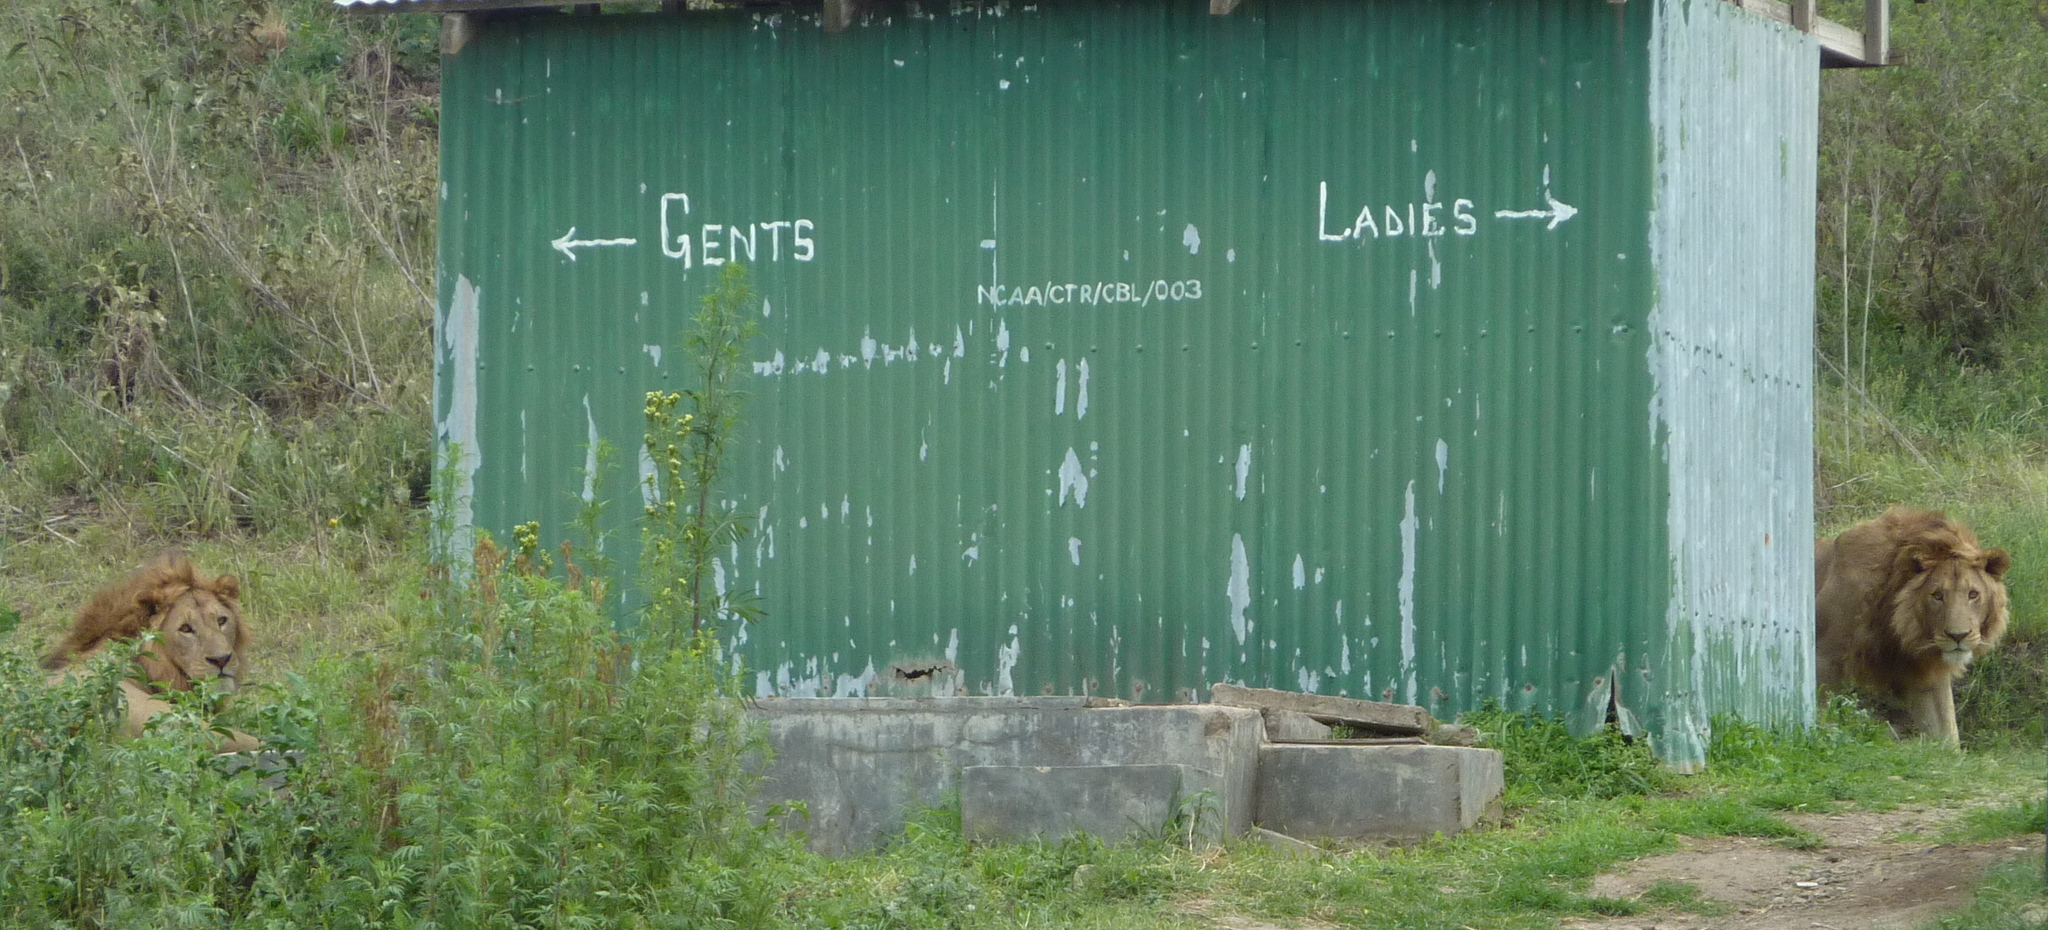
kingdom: Animalia
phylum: Chordata
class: Mammalia
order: Carnivora
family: Felidae
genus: Panthera
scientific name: Panthera leo
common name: Lion
